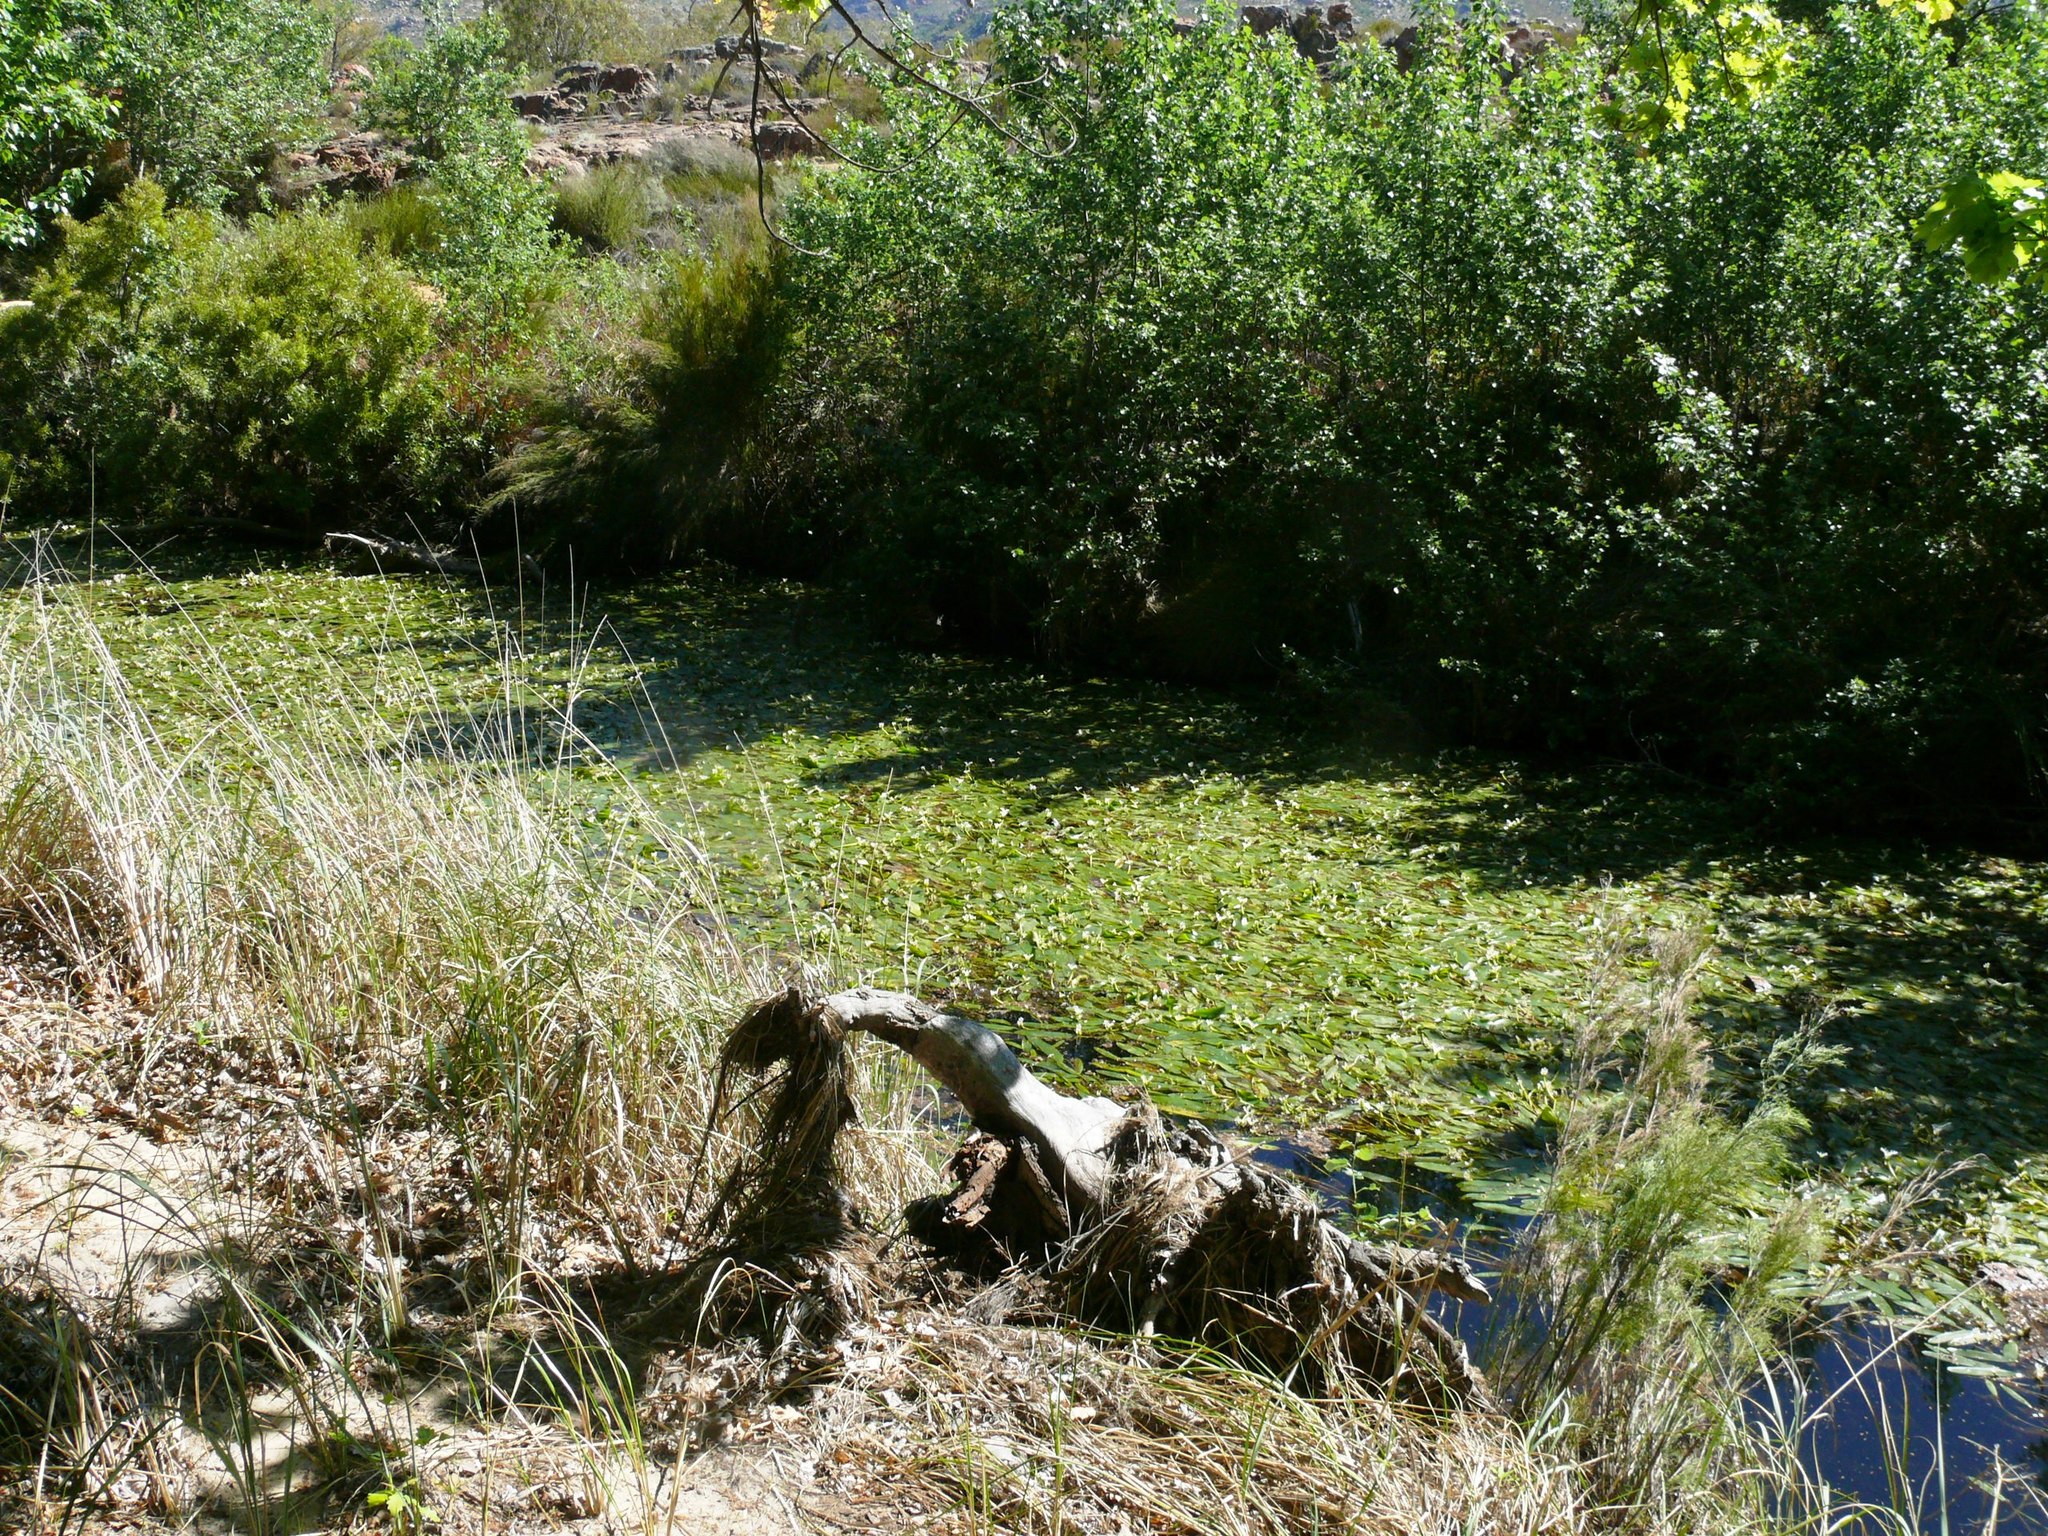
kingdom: Plantae
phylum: Tracheophyta
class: Liliopsida
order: Alismatales
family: Aponogetonaceae
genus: Aponogeton
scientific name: Aponogeton distachyos
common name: Cape-pondweed
